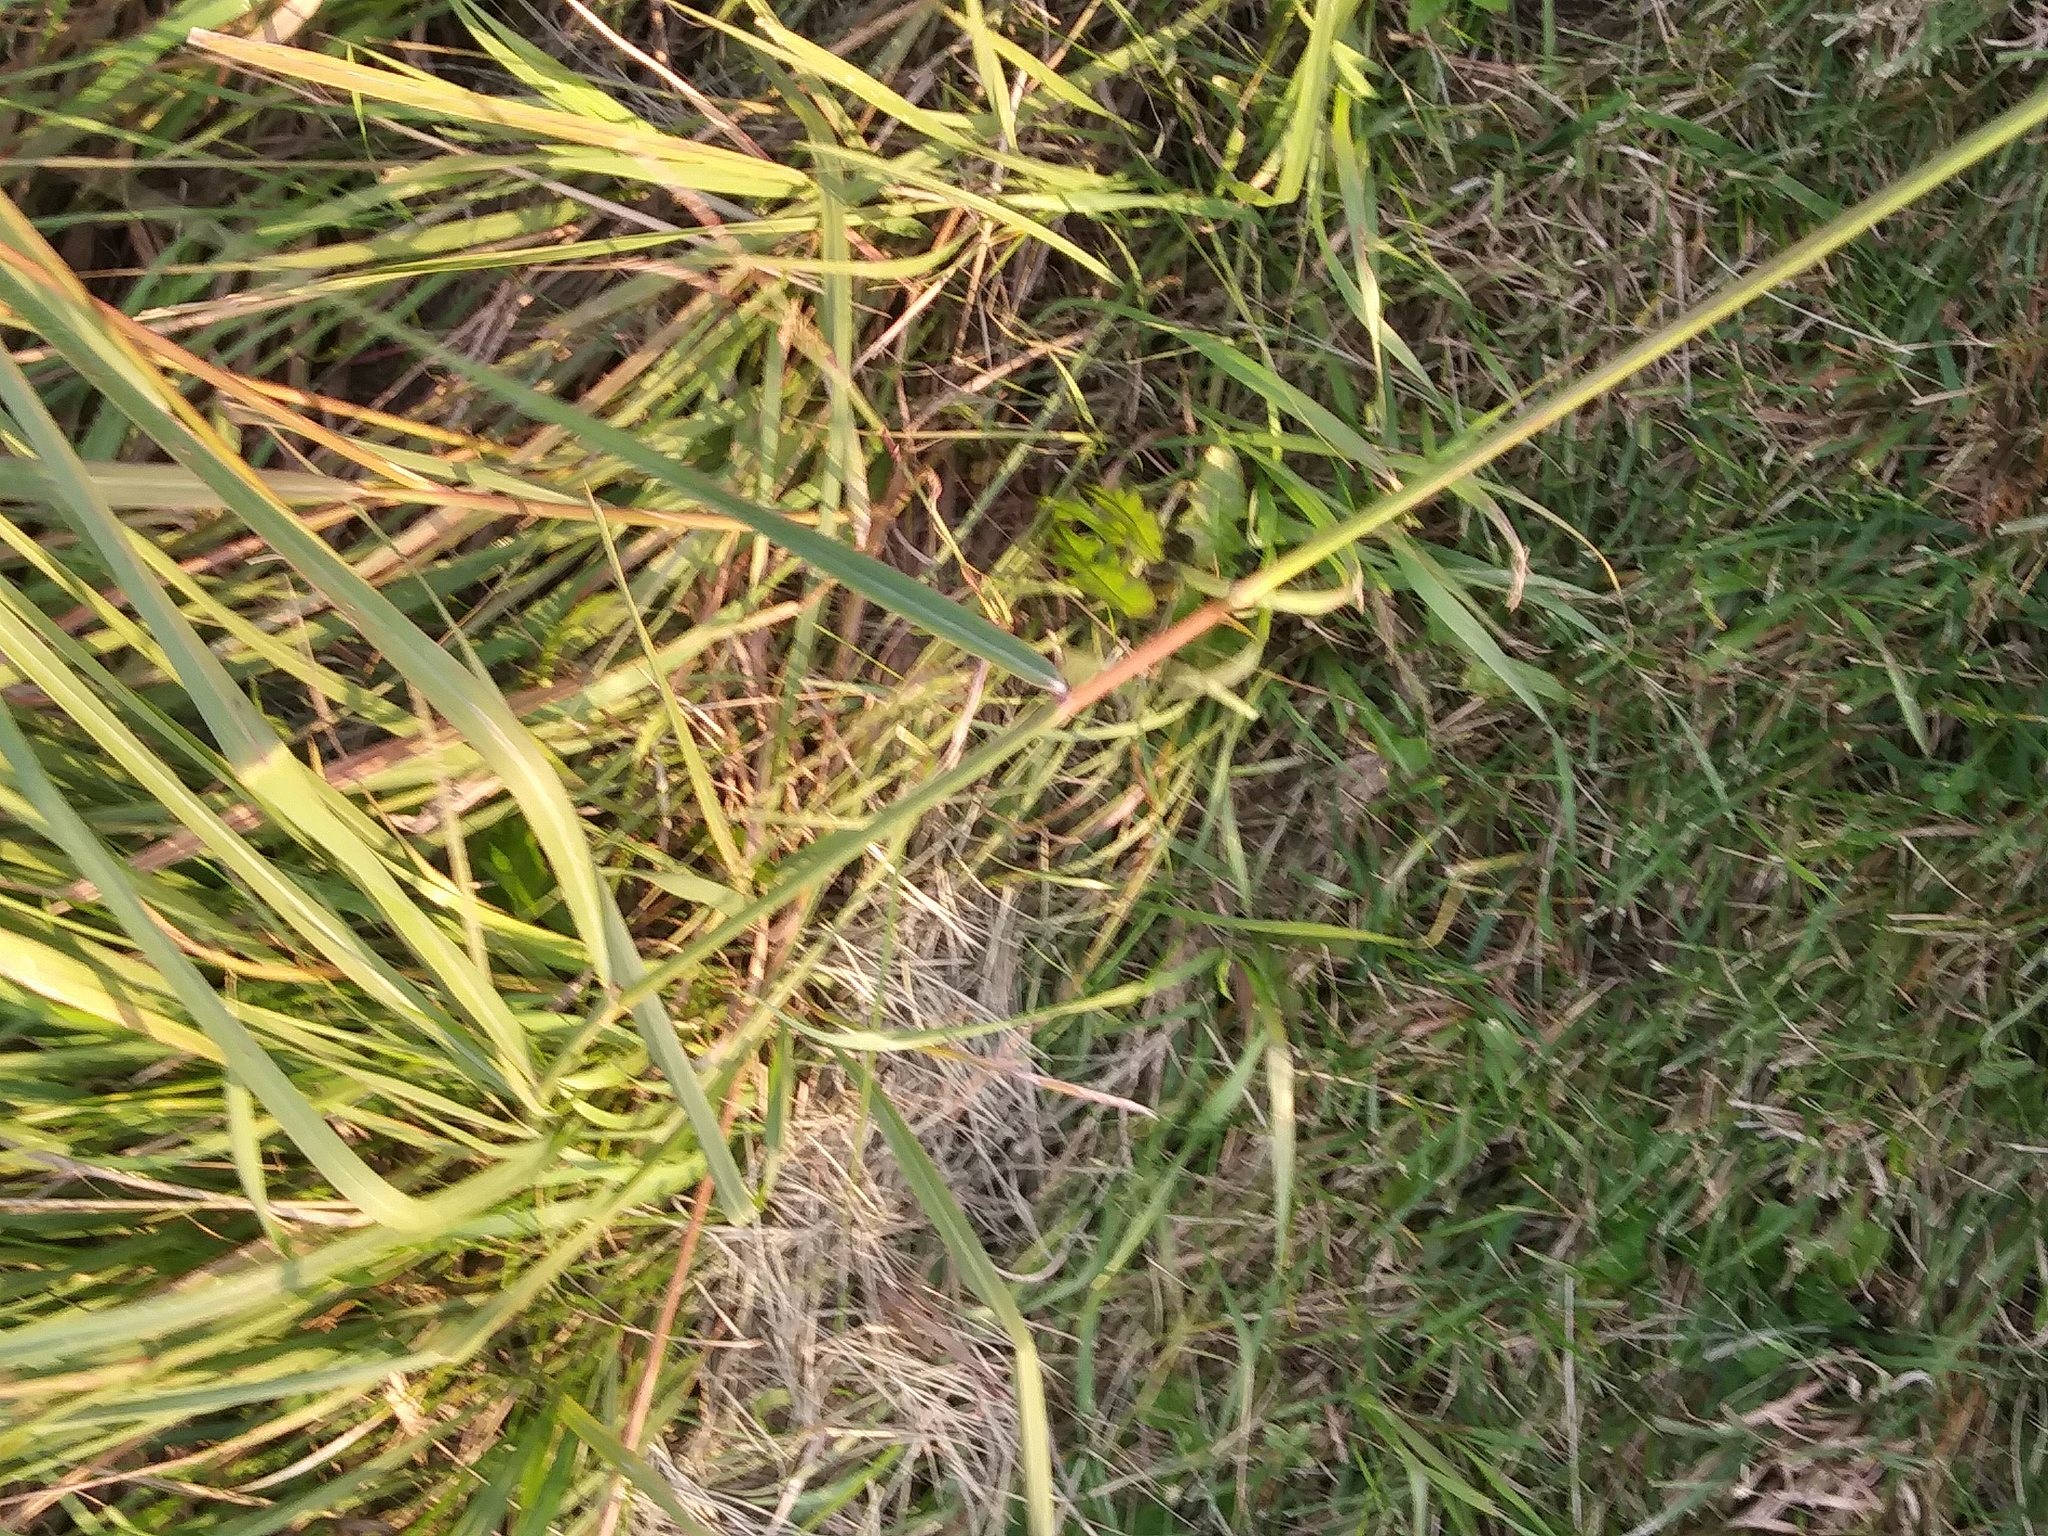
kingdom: Plantae
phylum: Tracheophyta
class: Liliopsida
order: Poales
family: Poaceae
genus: Sorghastrum
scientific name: Sorghastrum nutans
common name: Indian grass
